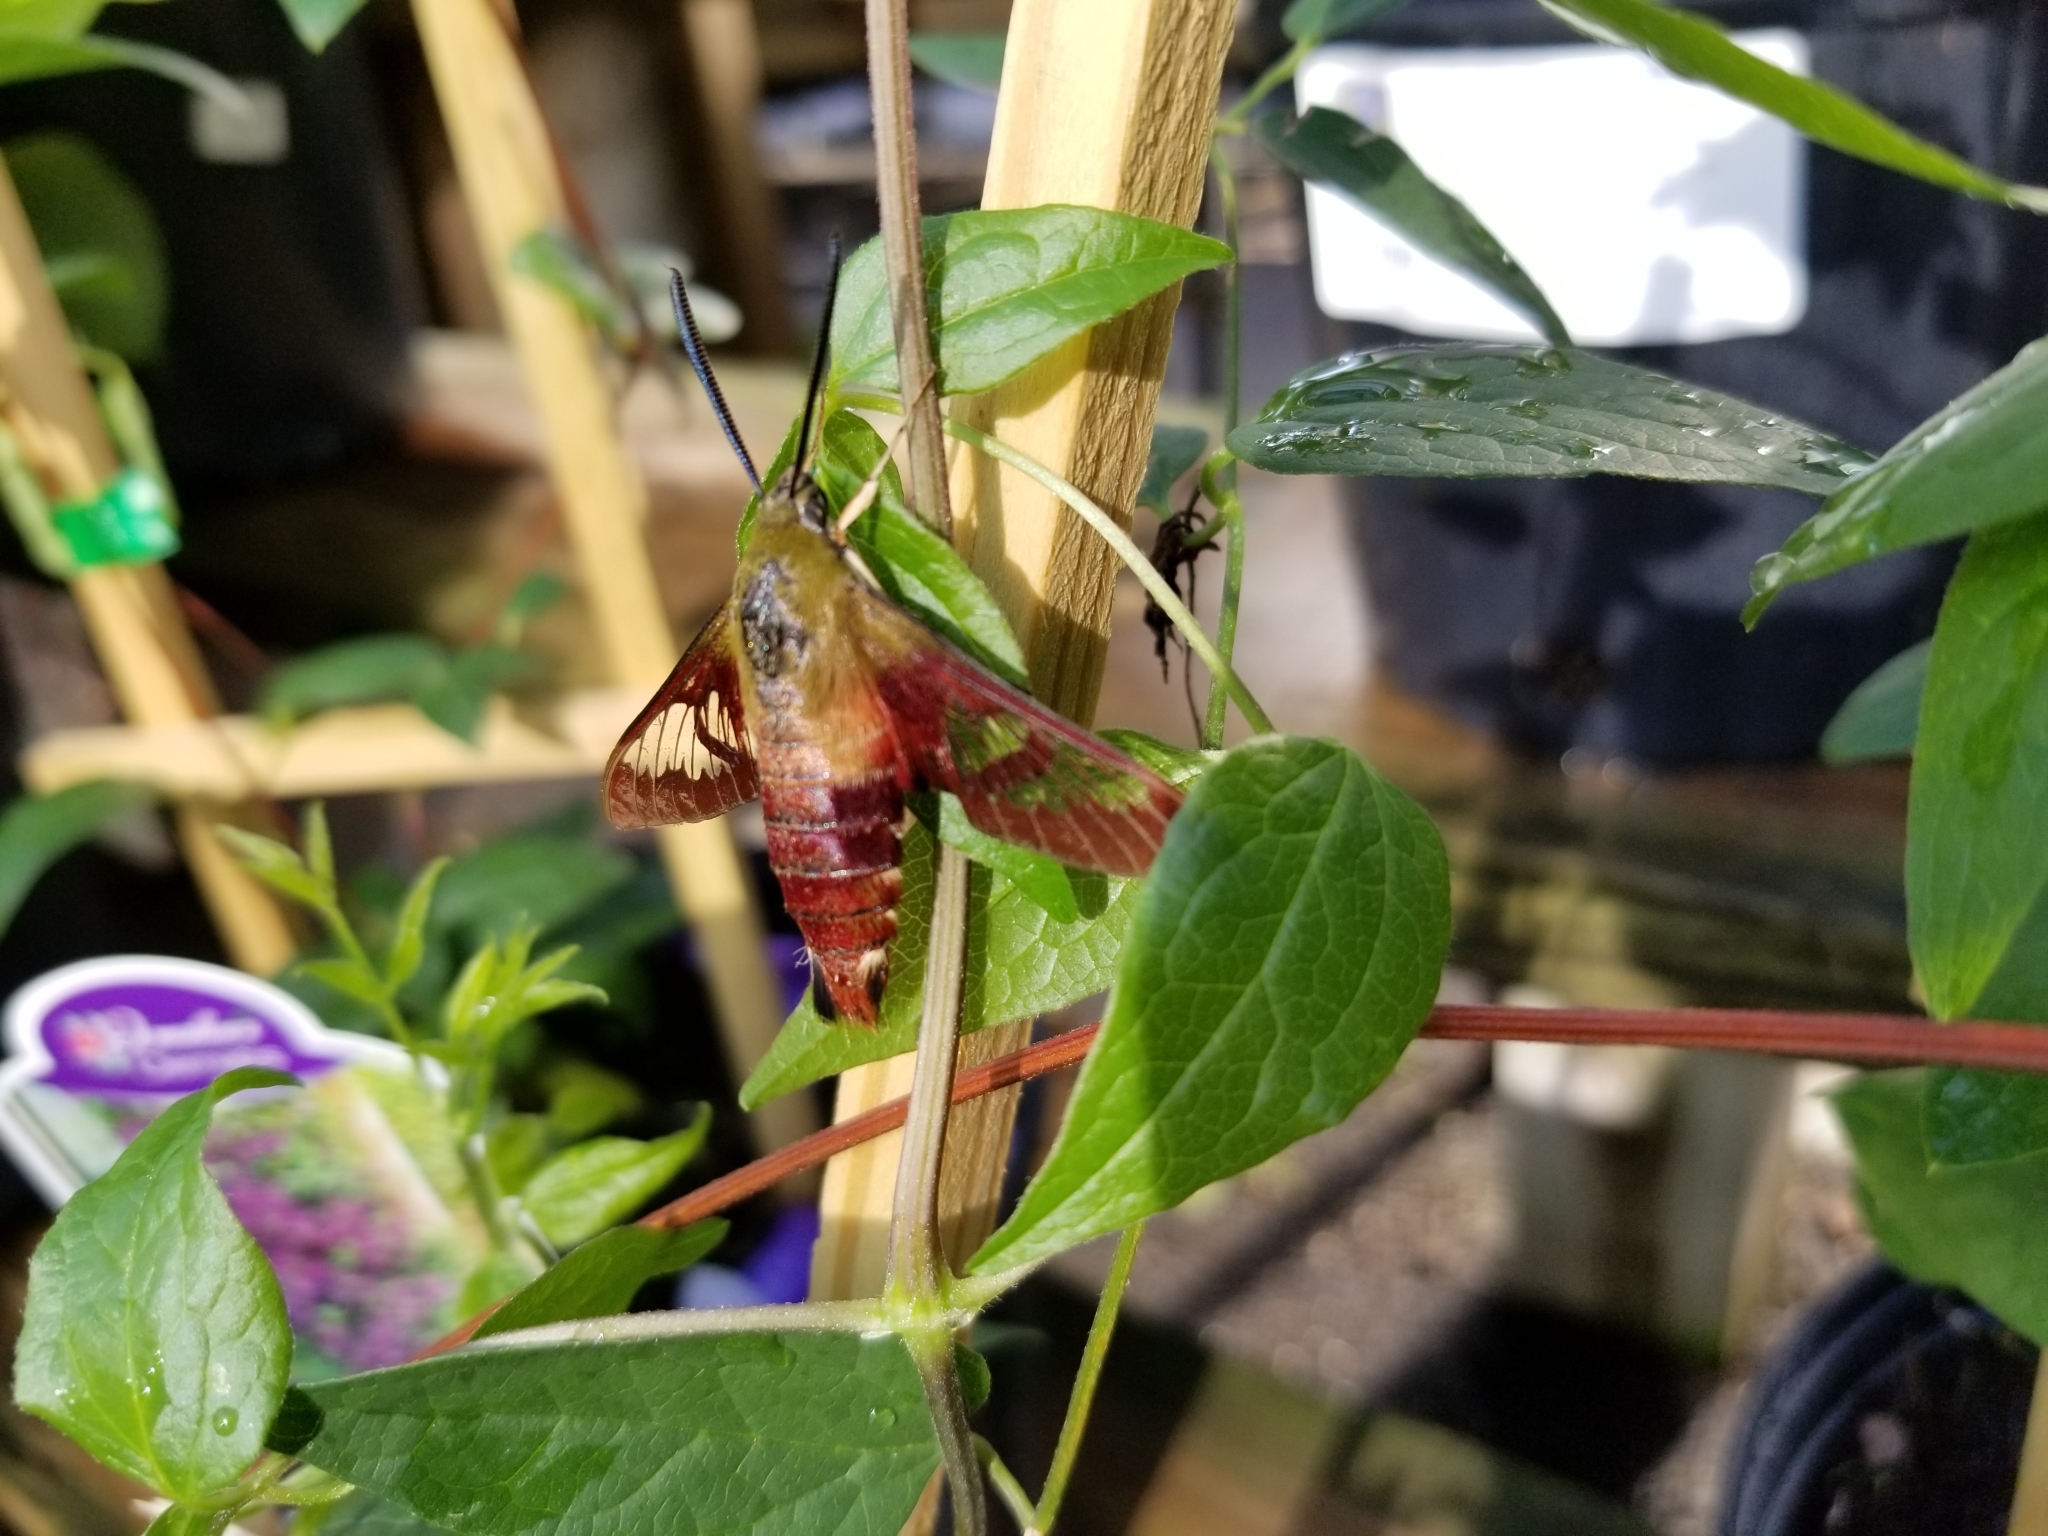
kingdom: Animalia
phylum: Arthropoda
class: Insecta
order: Lepidoptera
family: Sphingidae
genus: Hemaris
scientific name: Hemaris thysbe
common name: Common clear-wing
